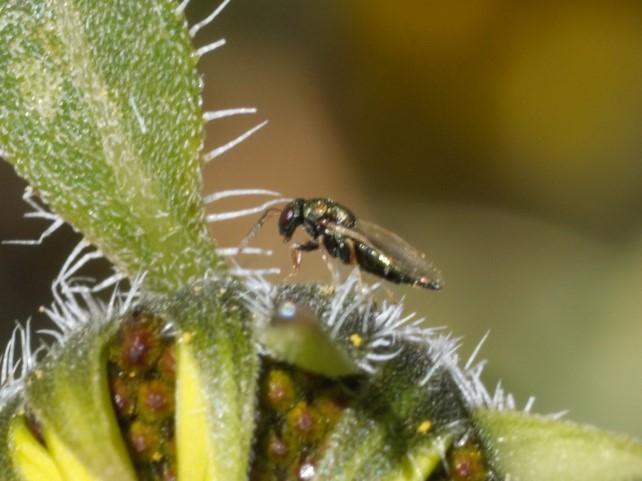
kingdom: Animalia
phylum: Arthropoda
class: Insecta
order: Hymenoptera
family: Pteromalini
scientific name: Pteromalini
